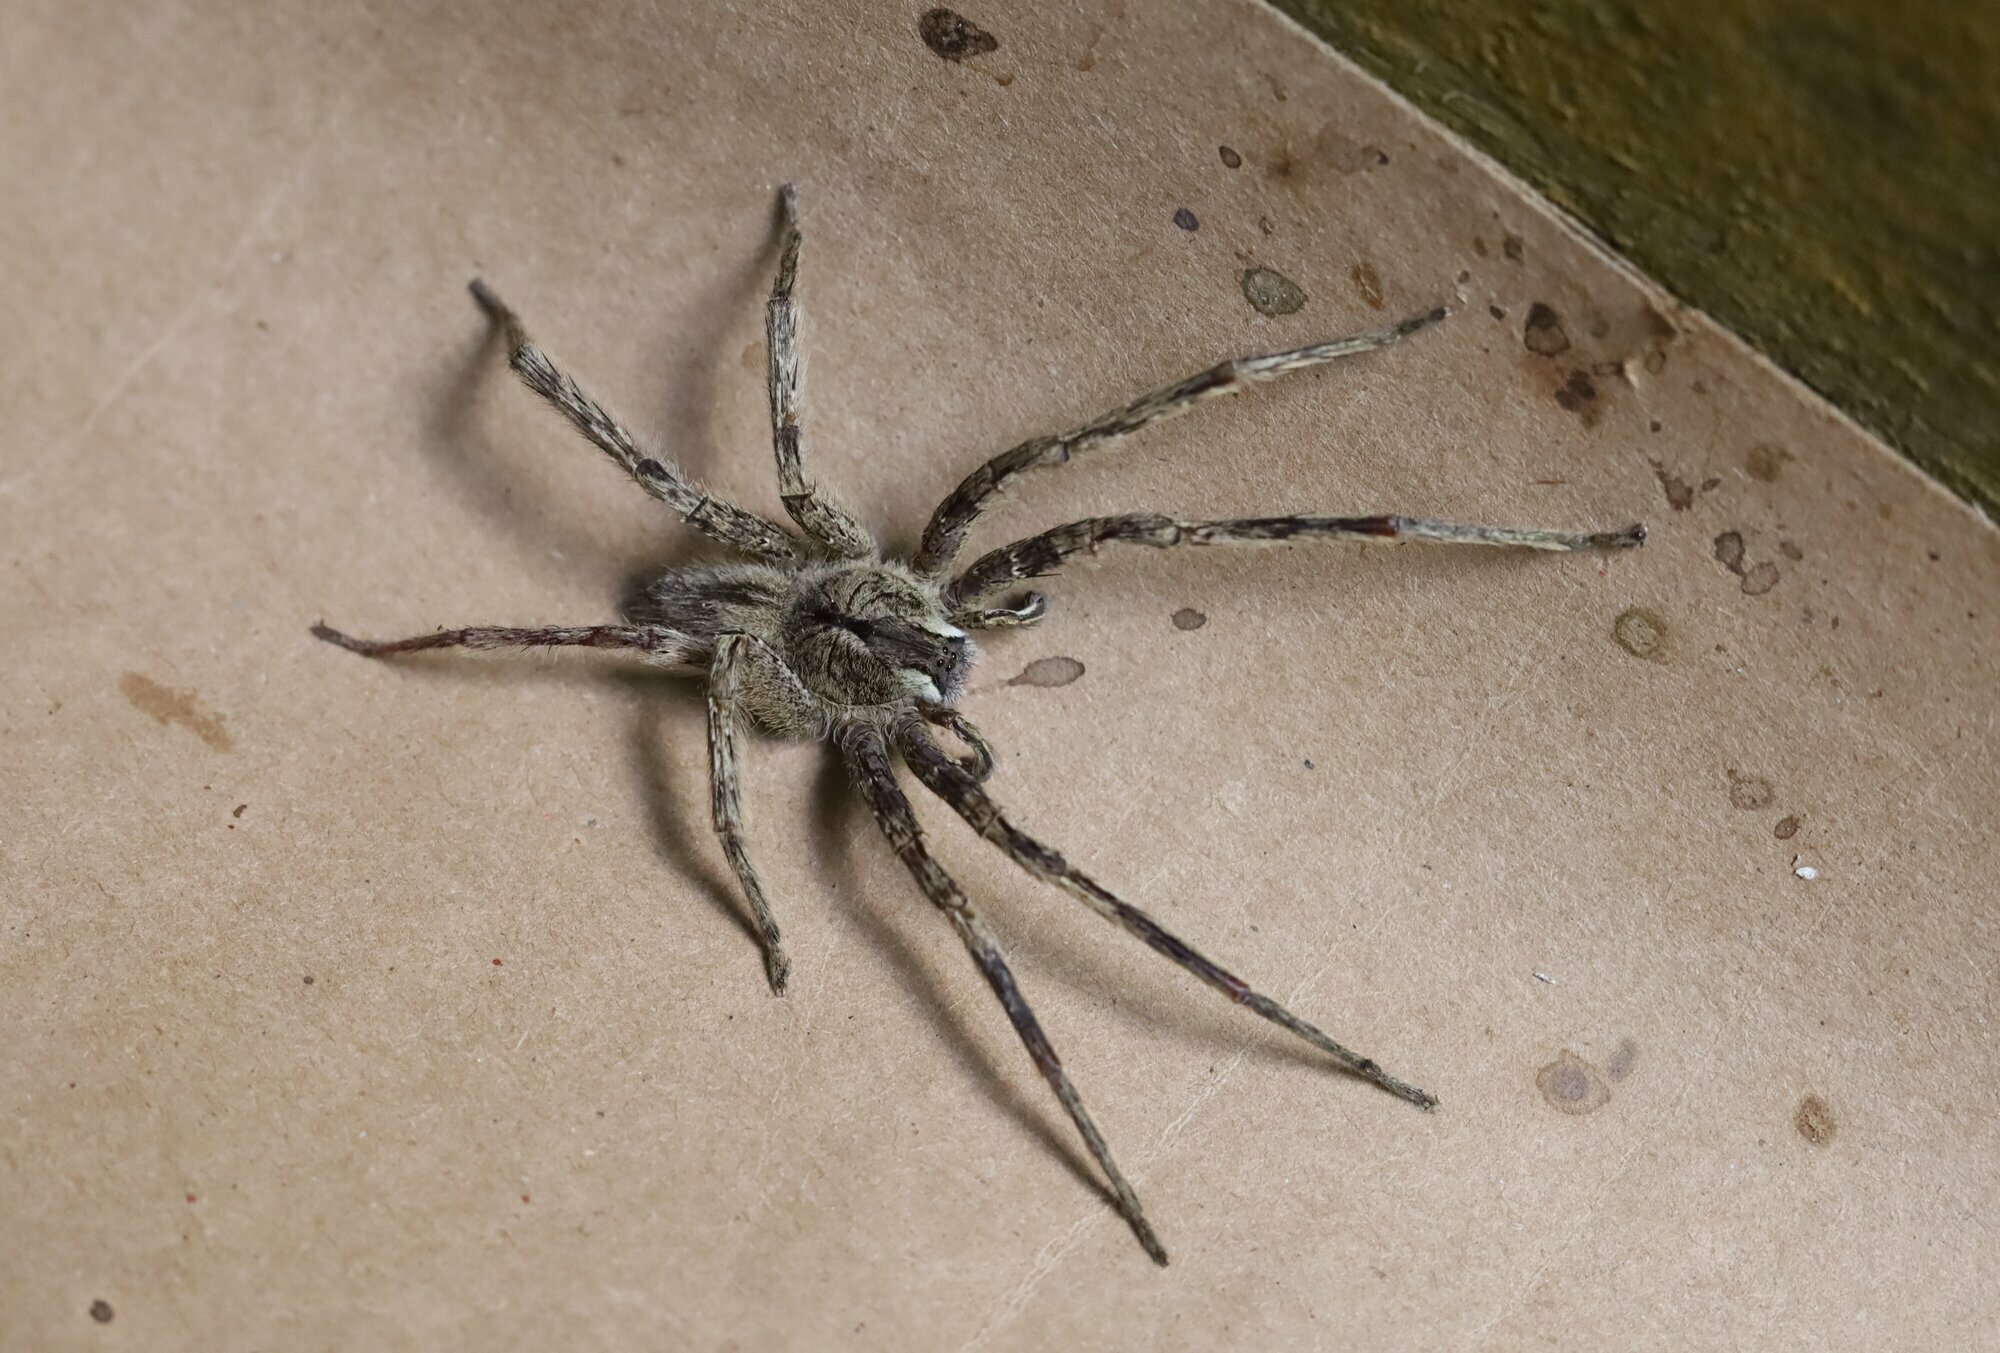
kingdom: Animalia
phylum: Arthropoda
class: Arachnida
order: Araneae
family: Ctenidae
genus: Phoneutria
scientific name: Phoneutria boliviensis
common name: Wandering spiders
